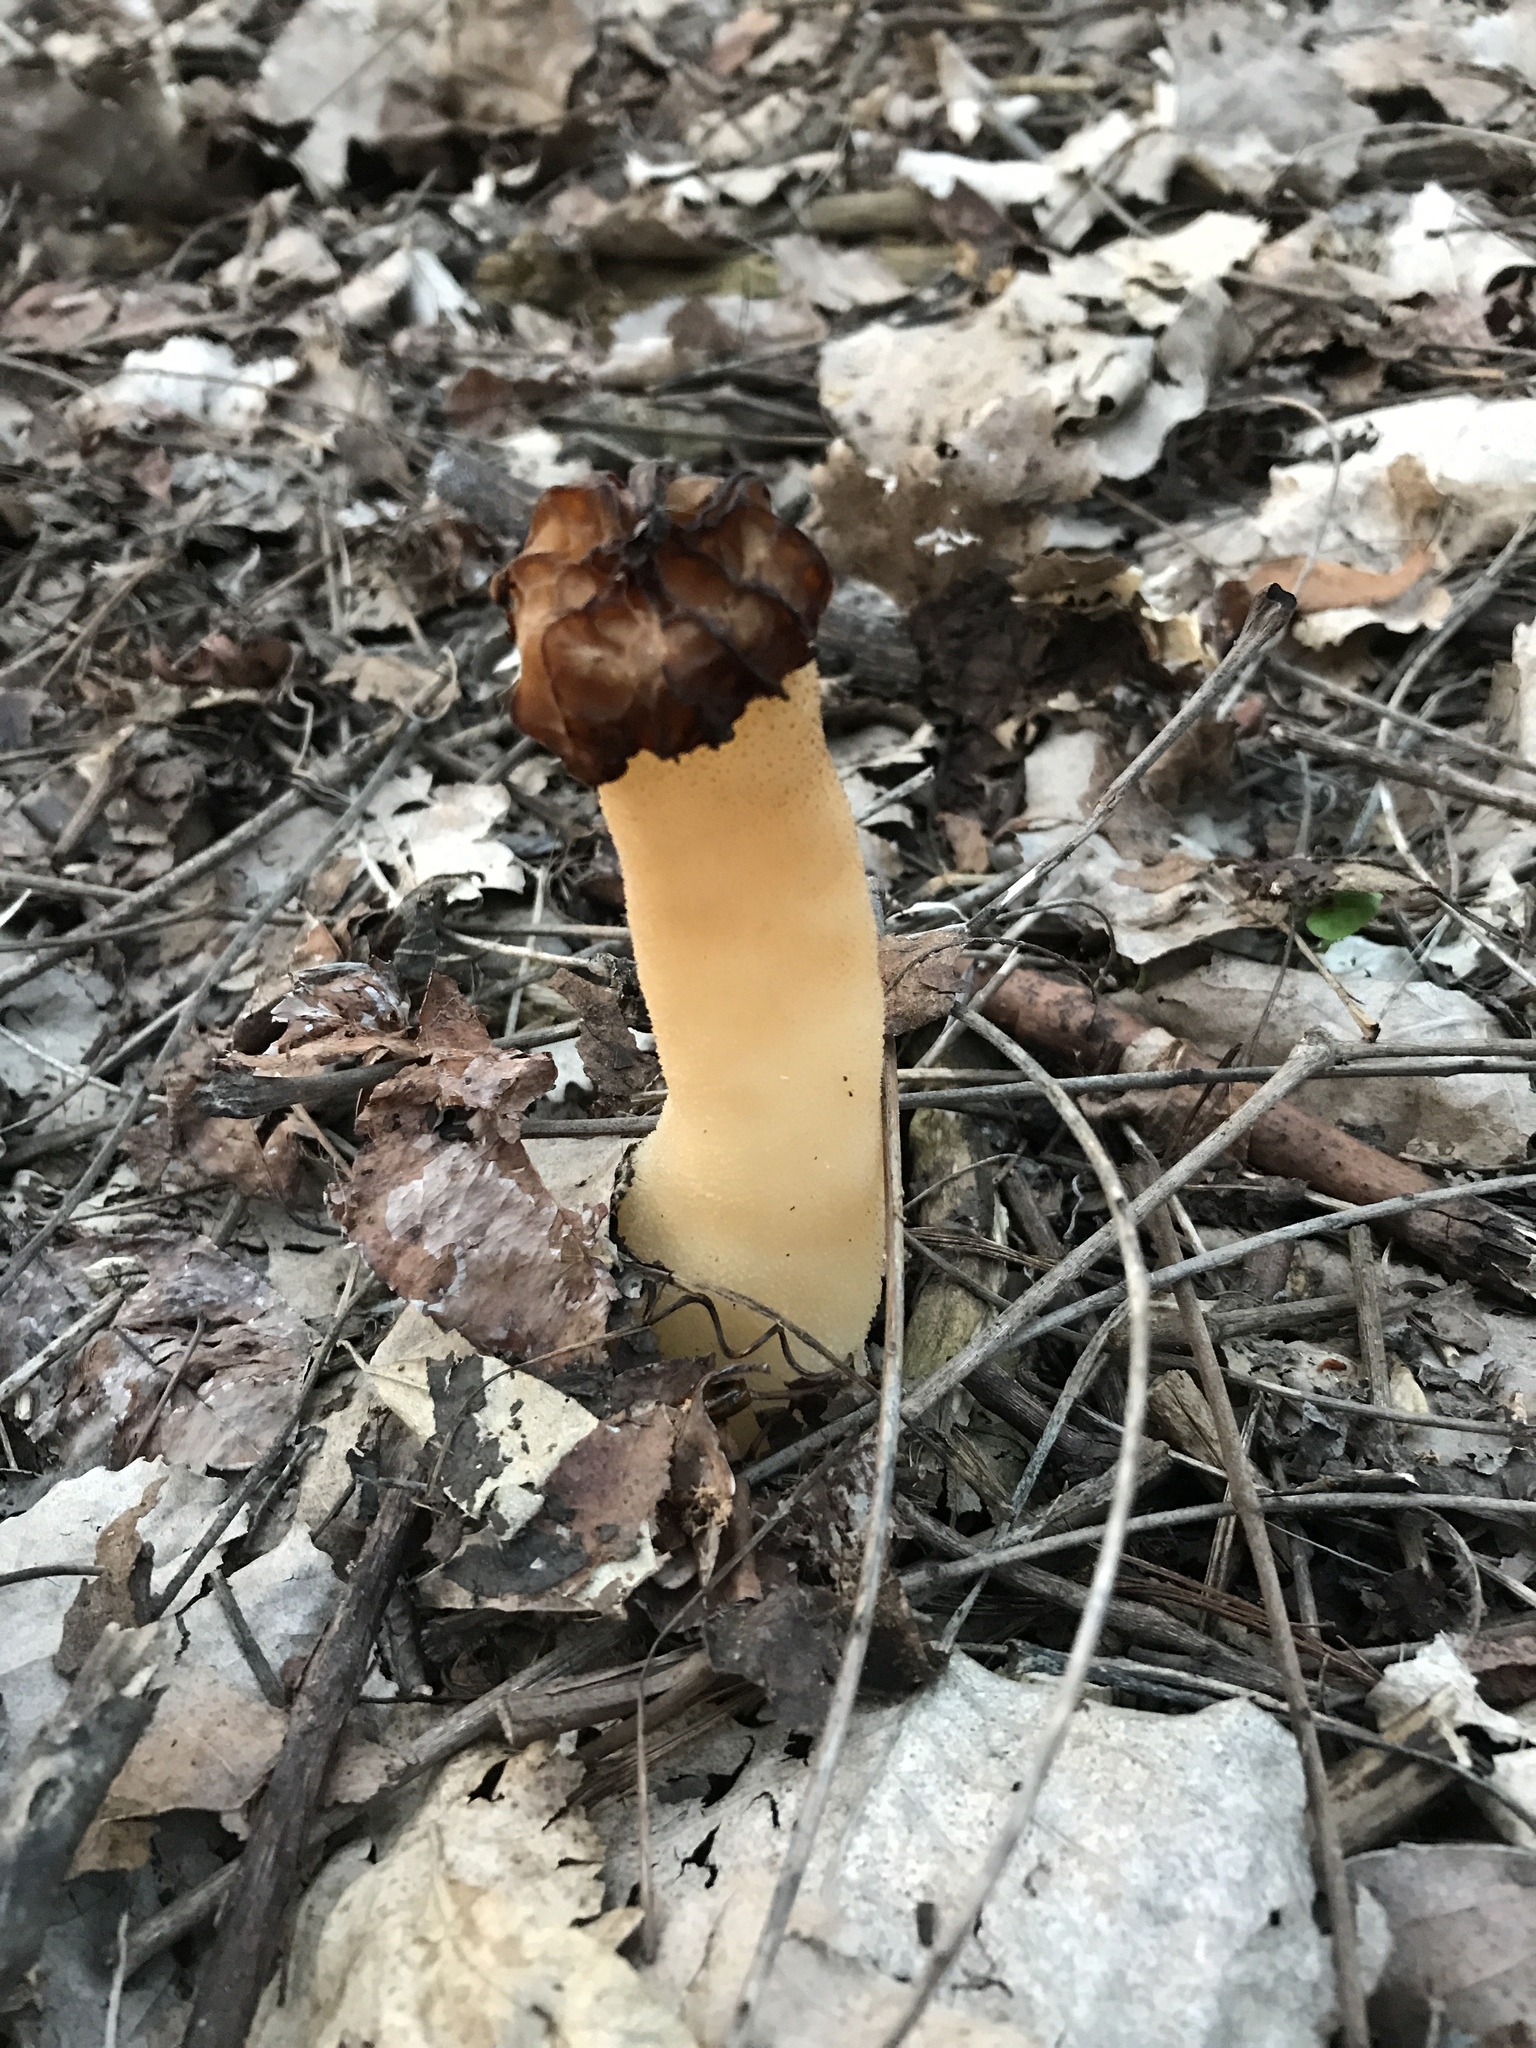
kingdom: Fungi
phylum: Ascomycota
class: Pezizomycetes
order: Pezizales
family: Morchellaceae
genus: Morchella
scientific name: Morchella punctipes
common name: Half-free morel
